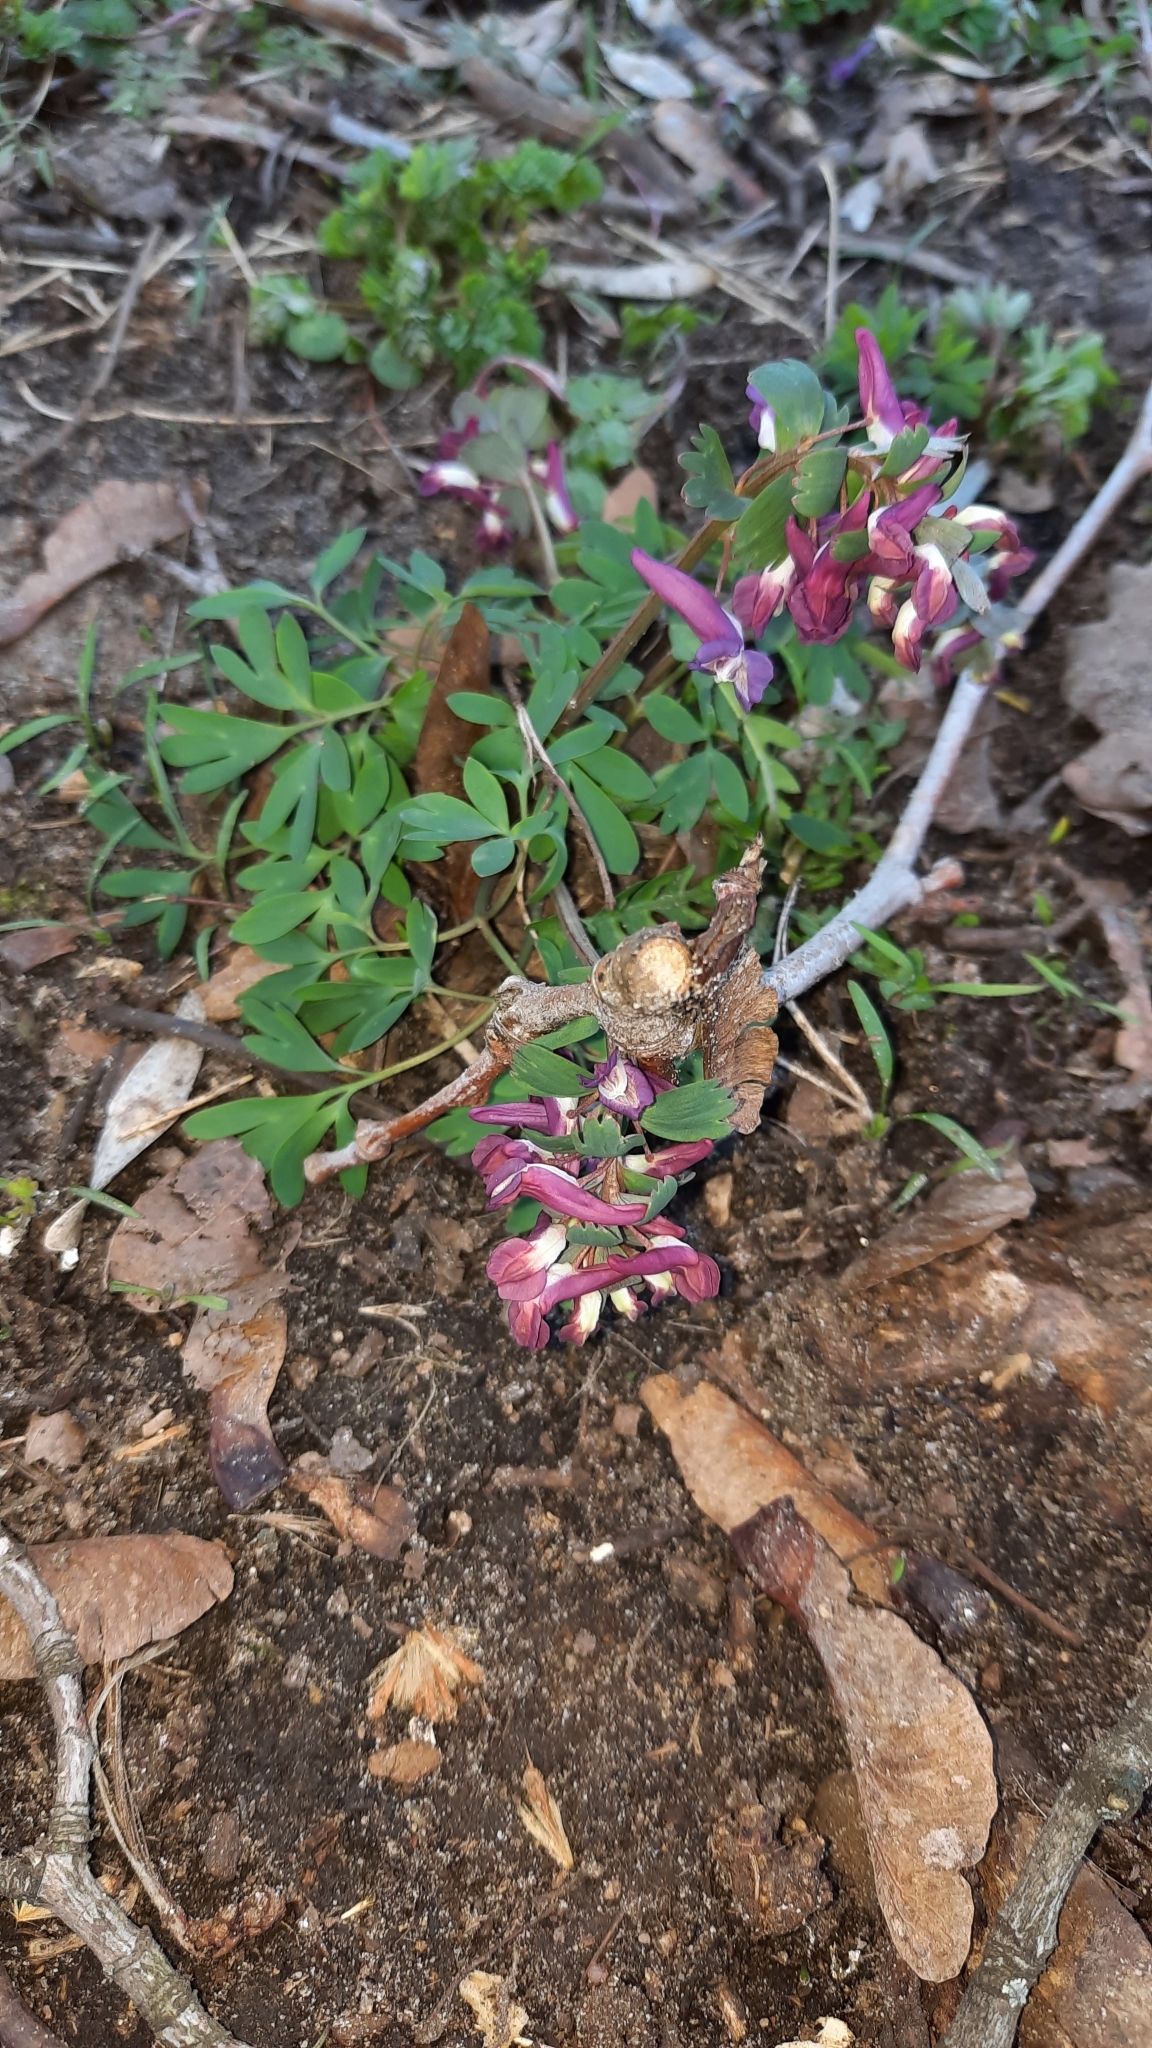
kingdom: Plantae
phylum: Tracheophyta
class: Magnoliopsida
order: Ranunculales
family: Papaveraceae
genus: Corydalis
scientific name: Corydalis solida
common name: Bird-in-a-bush
